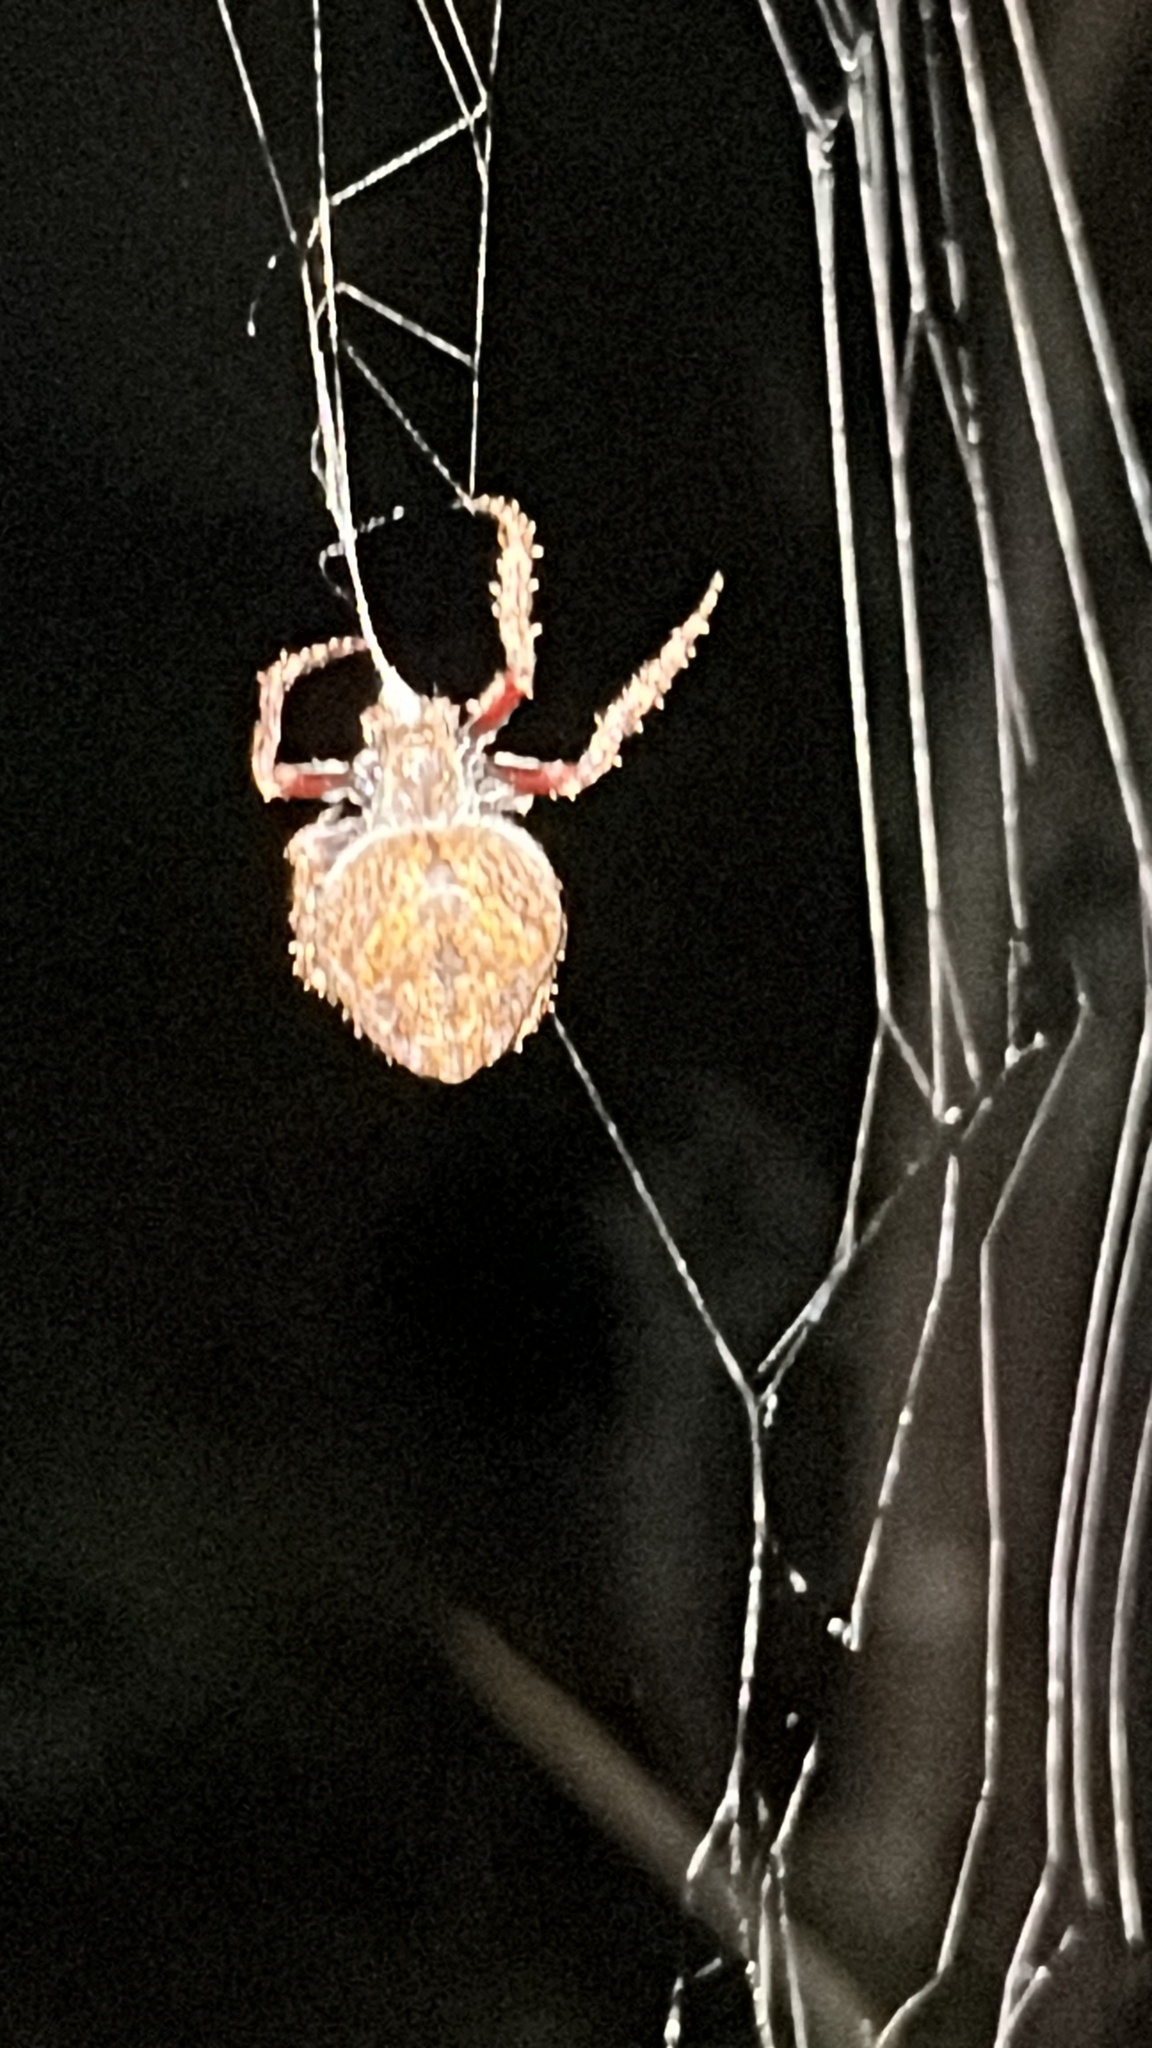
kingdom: Animalia
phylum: Arthropoda
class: Arachnida
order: Araneae
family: Araneidae
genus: Eriophora
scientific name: Eriophora pustulosa
